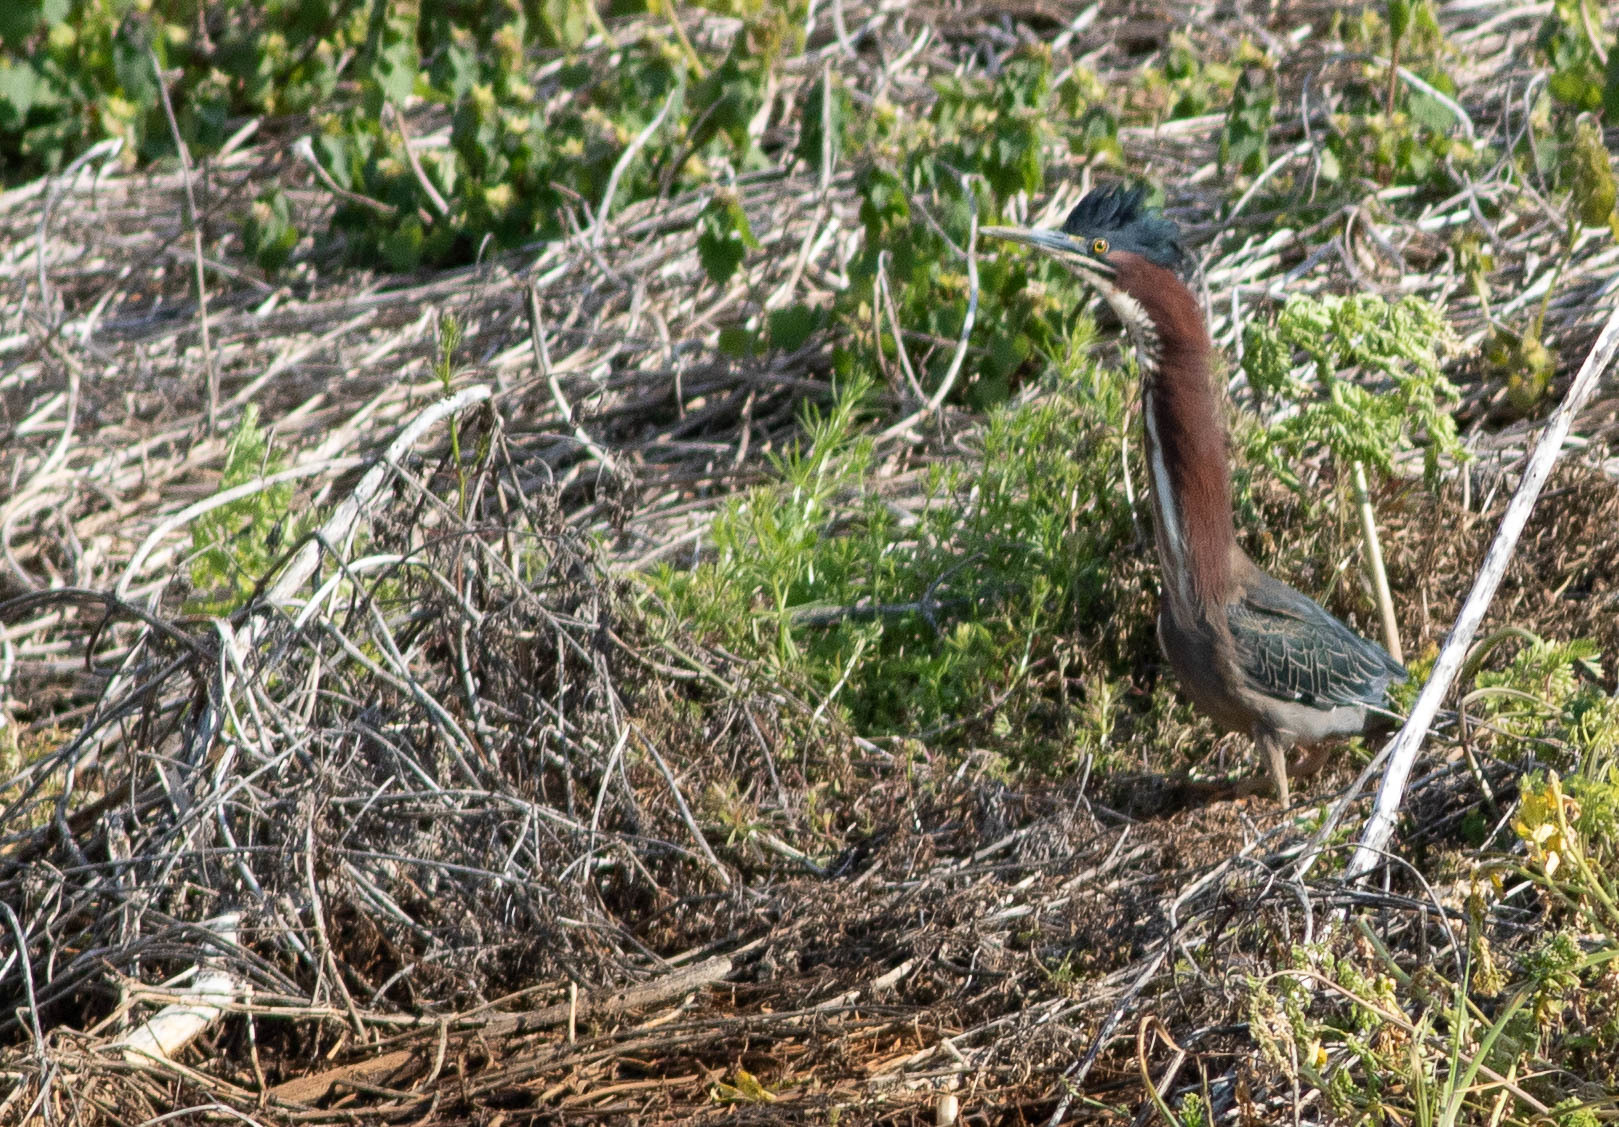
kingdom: Animalia
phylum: Chordata
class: Aves
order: Pelecaniformes
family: Ardeidae
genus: Butorides
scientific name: Butorides virescens
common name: Green heron
